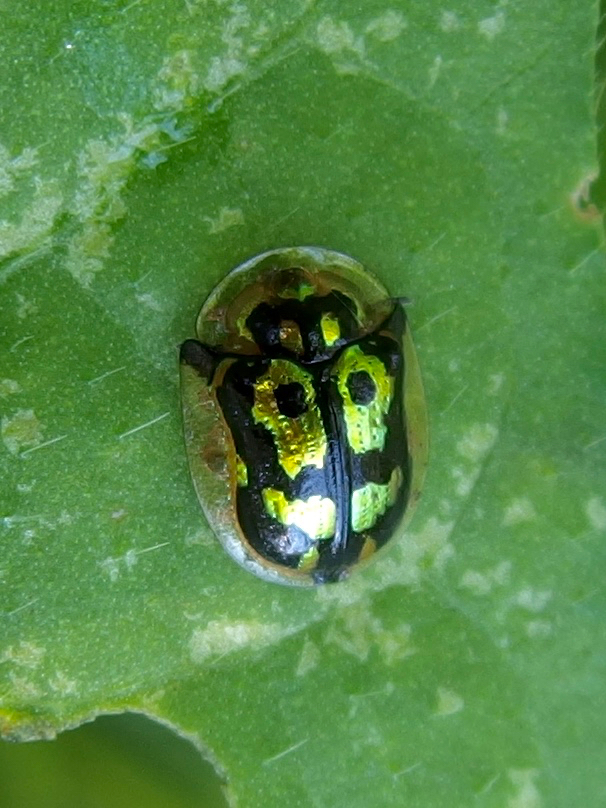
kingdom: Animalia
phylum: Arthropoda
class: Insecta
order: Coleoptera
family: Chrysomelidae
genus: Deloyala
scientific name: Deloyala lecontei
